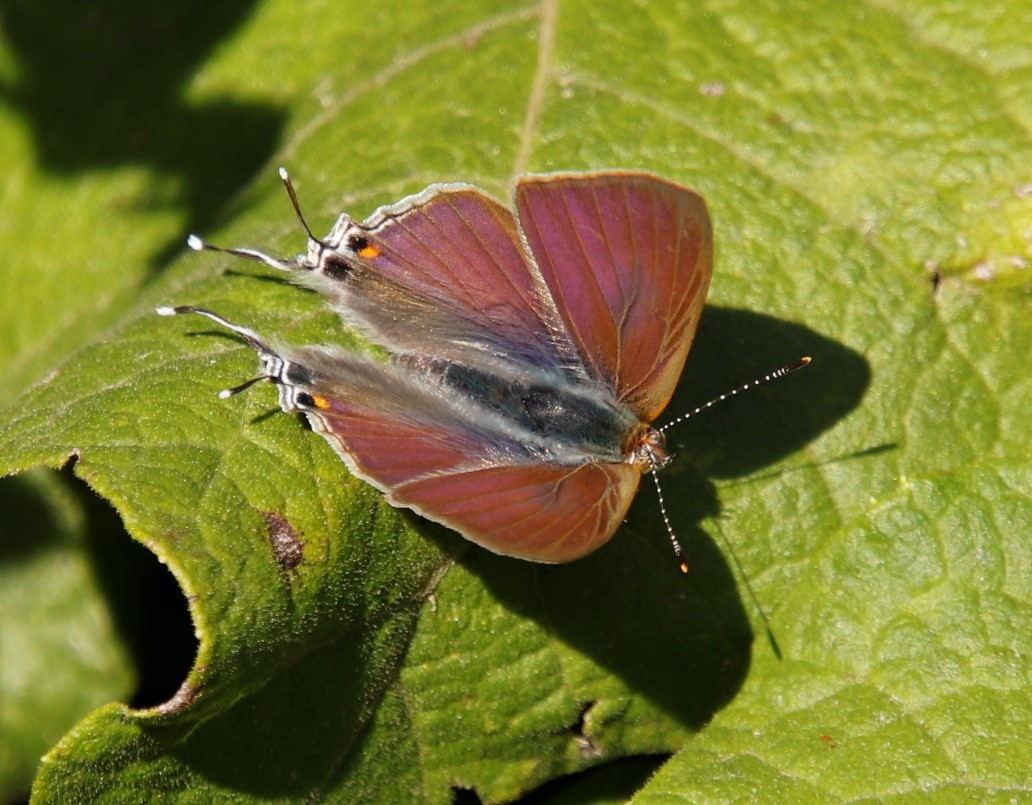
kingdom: Animalia
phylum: Arthropoda
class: Insecta
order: Lepidoptera
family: Lycaenidae
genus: Hypolycaena
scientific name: Hypolycaena philippus
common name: Common hairstreak
